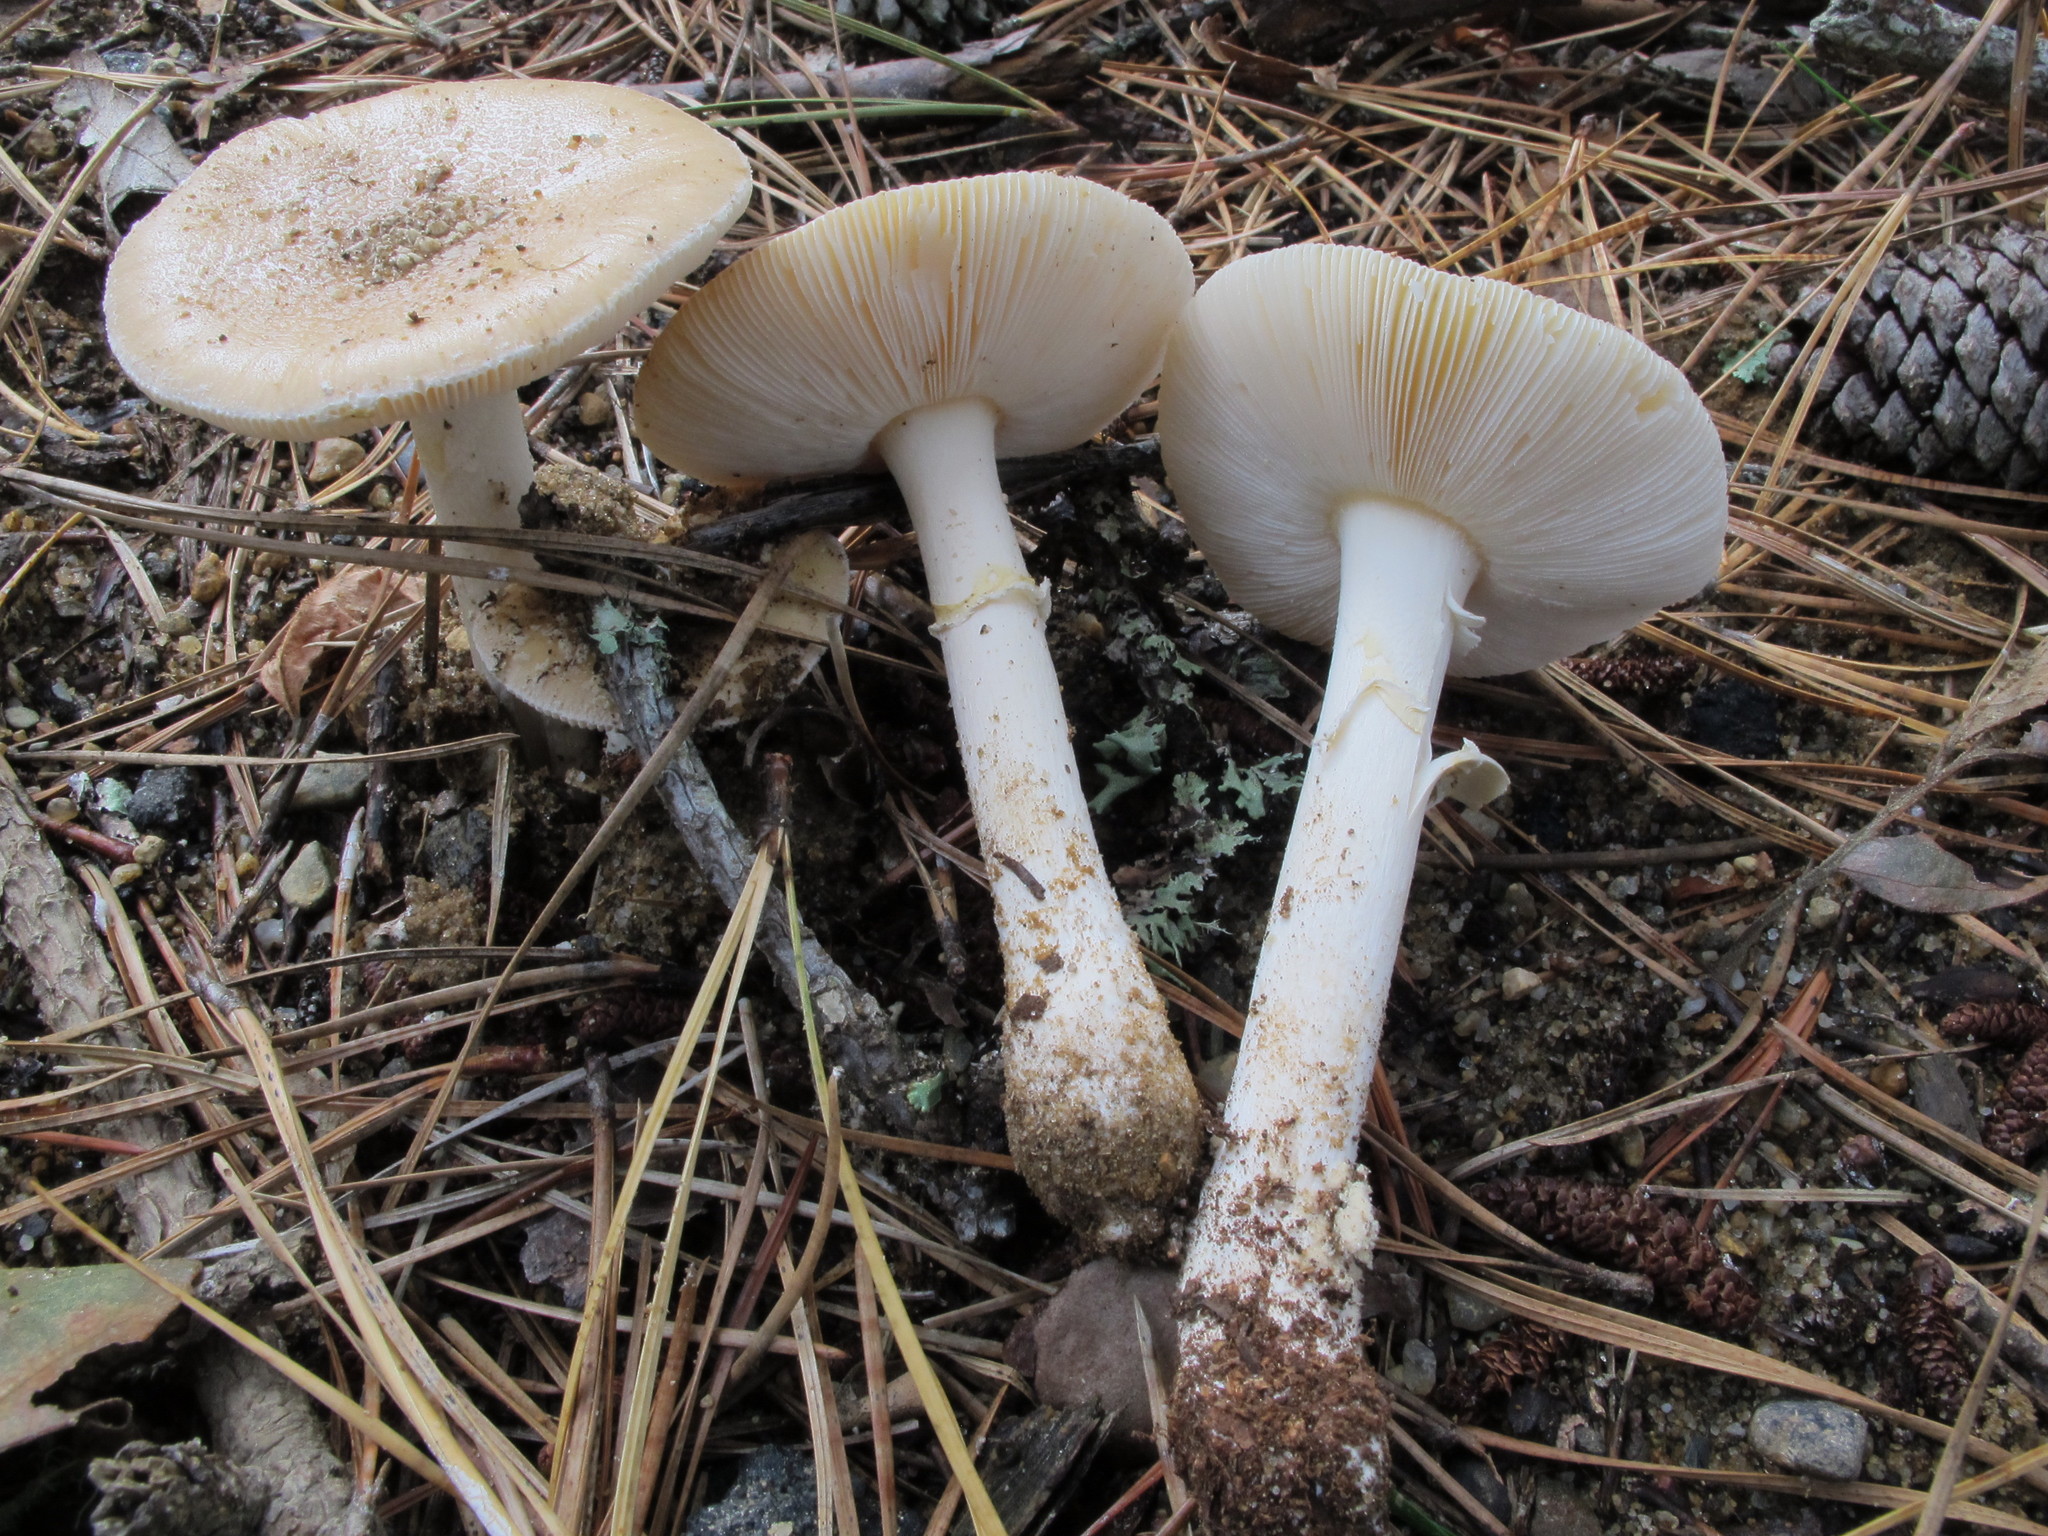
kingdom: Fungi
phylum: Basidiomycota
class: Agaricomycetes
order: Agaricales
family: Amanitaceae
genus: Amanita
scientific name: Amanita crenulata
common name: Poison champagne amanita
